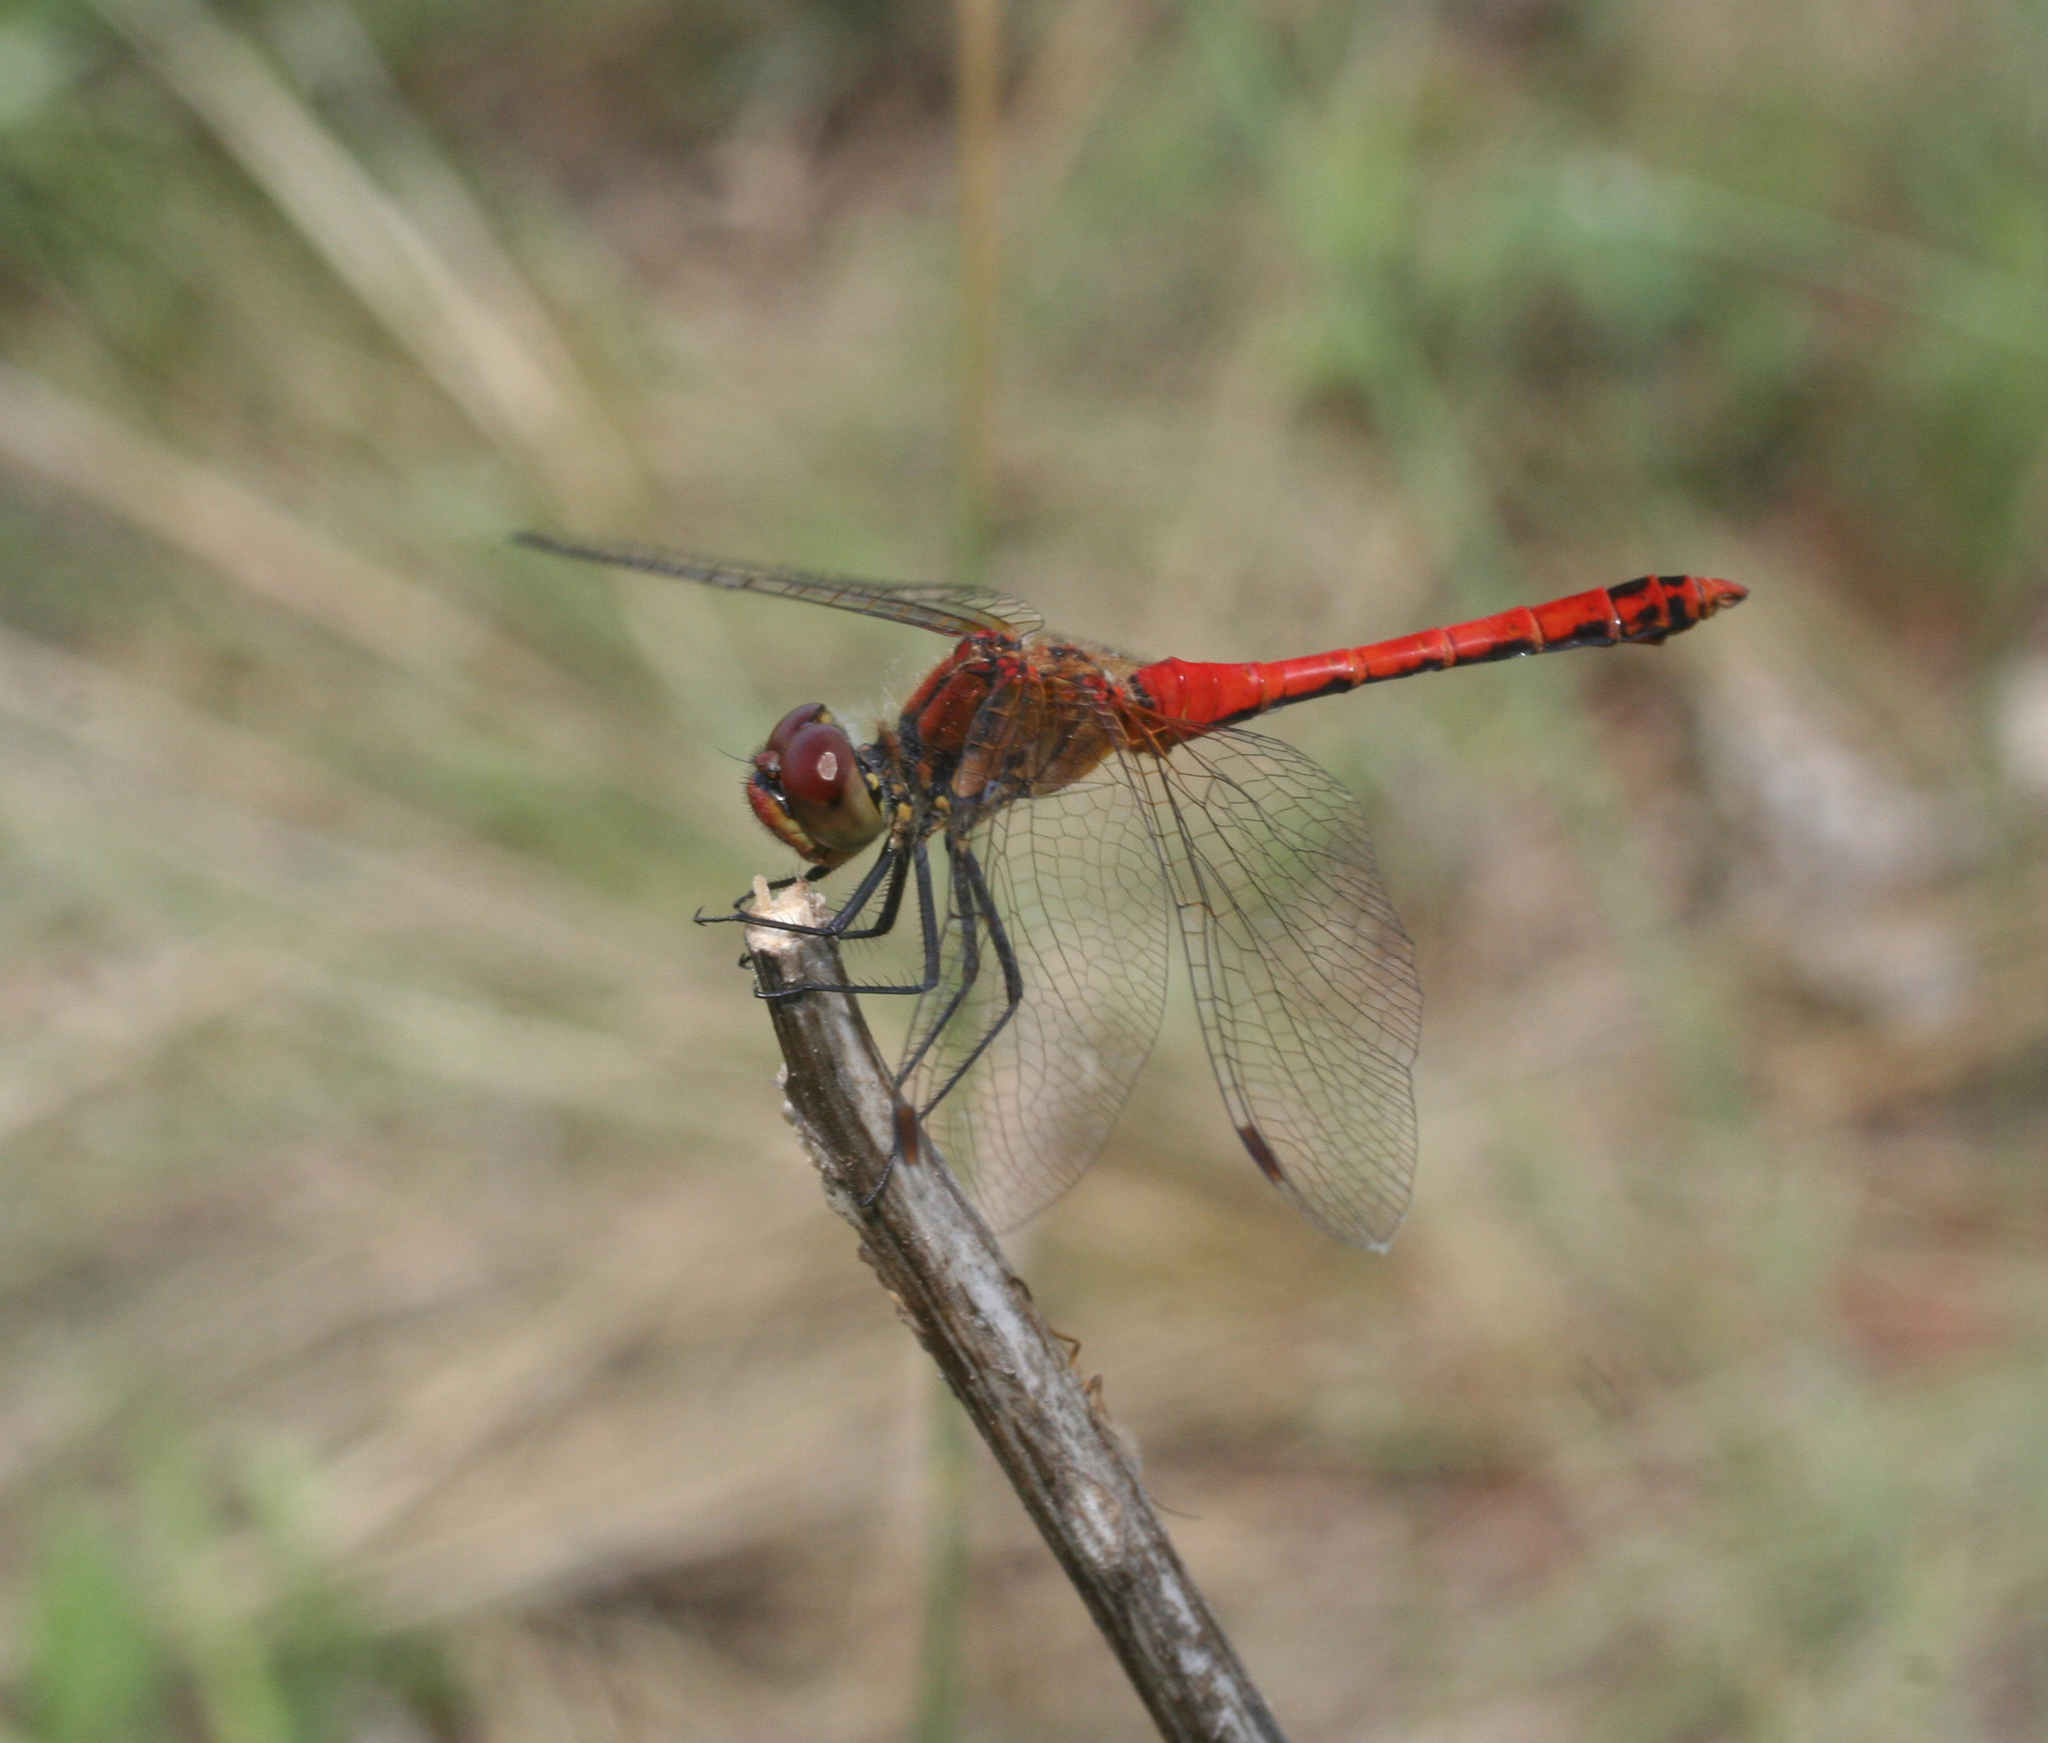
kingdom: Animalia
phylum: Arthropoda
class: Insecta
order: Odonata
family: Libellulidae
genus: Sympetrum
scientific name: Sympetrum sanguineum
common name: Ruddy darter
